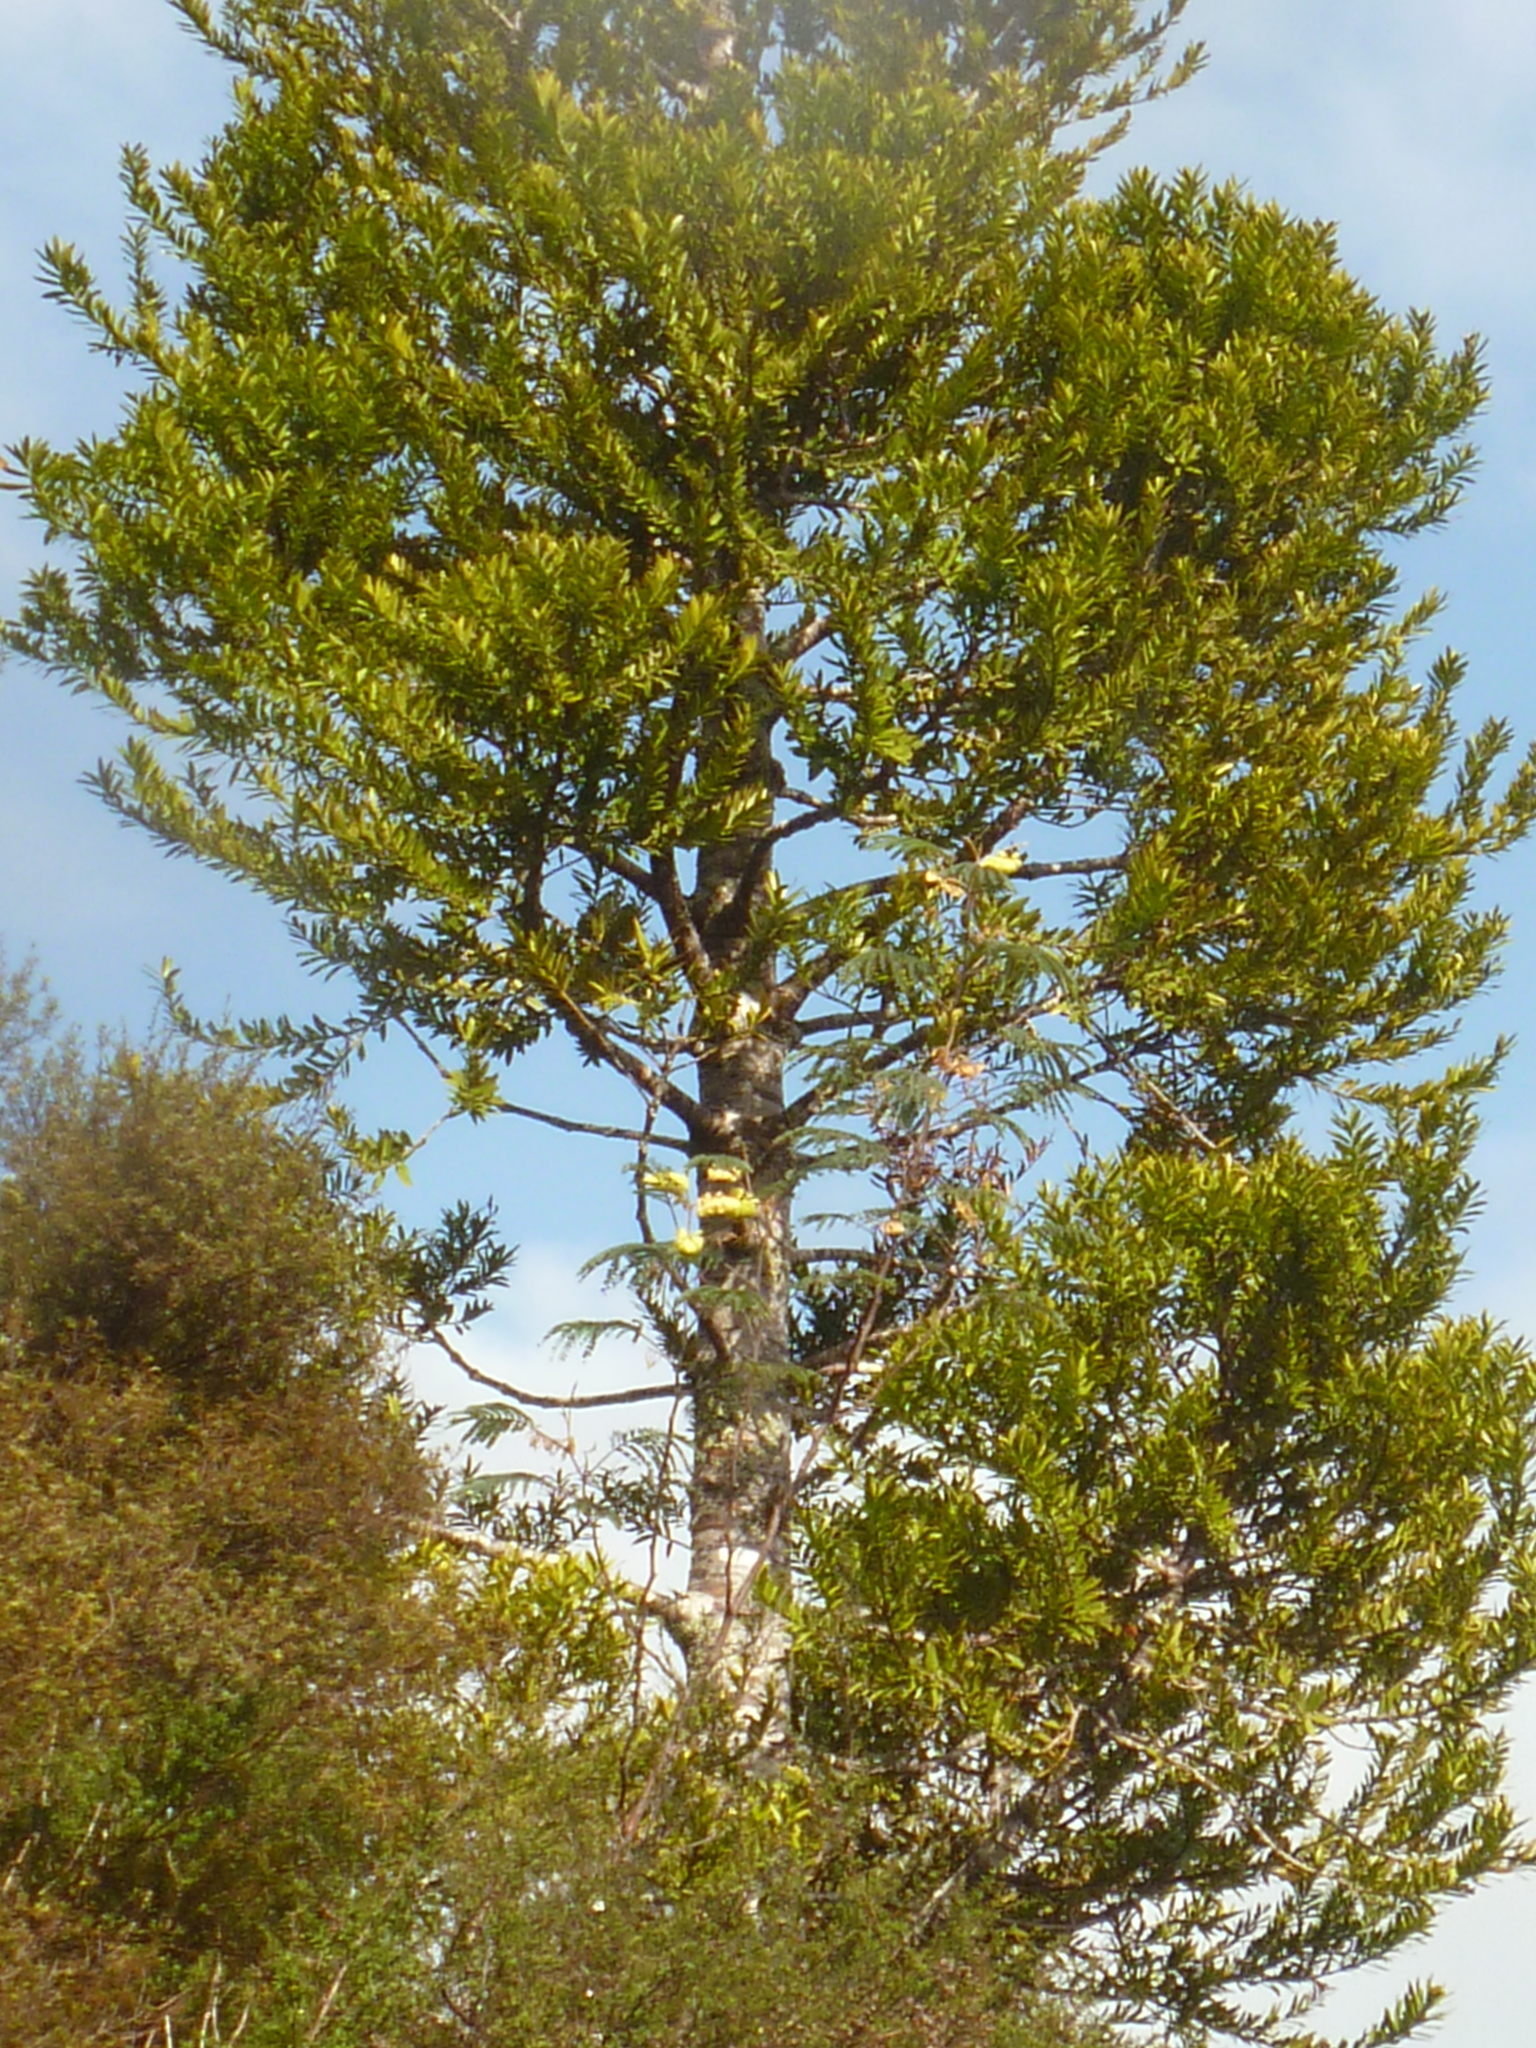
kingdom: Plantae
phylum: Tracheophyta
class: Magnoliopsida
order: Fabales
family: Fabaceae
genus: Paraserianthes
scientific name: Paraserianthes lophantha
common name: Plume albizia
